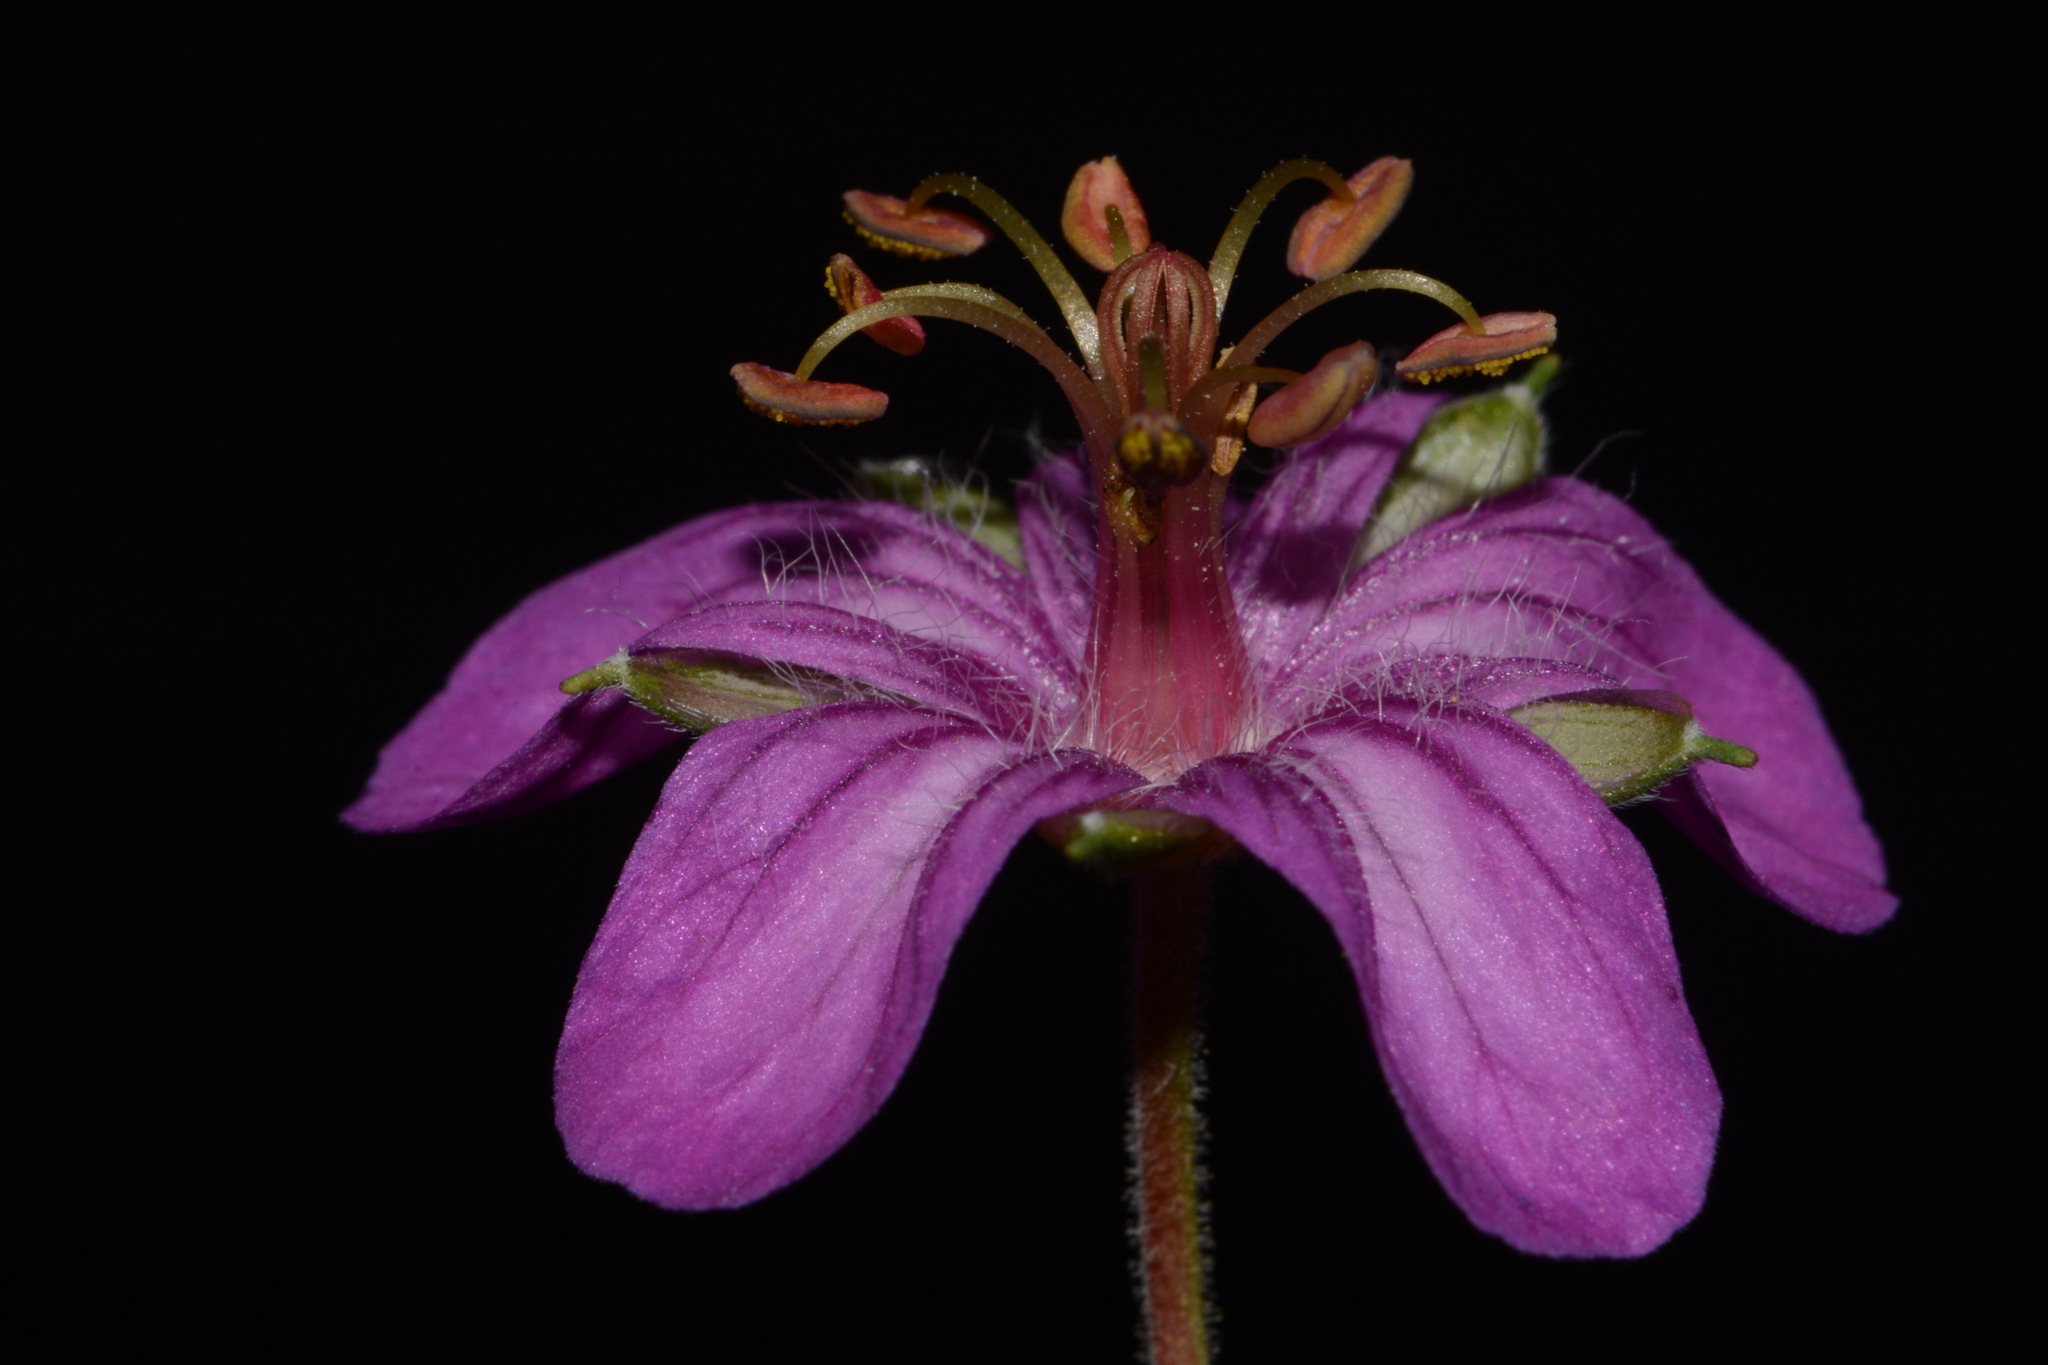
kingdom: Plantae
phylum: Tracheophyta
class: Magnoliopsida
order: Geraniales
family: Geraniaceae
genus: Geranium
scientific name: Geranium caespitosum
